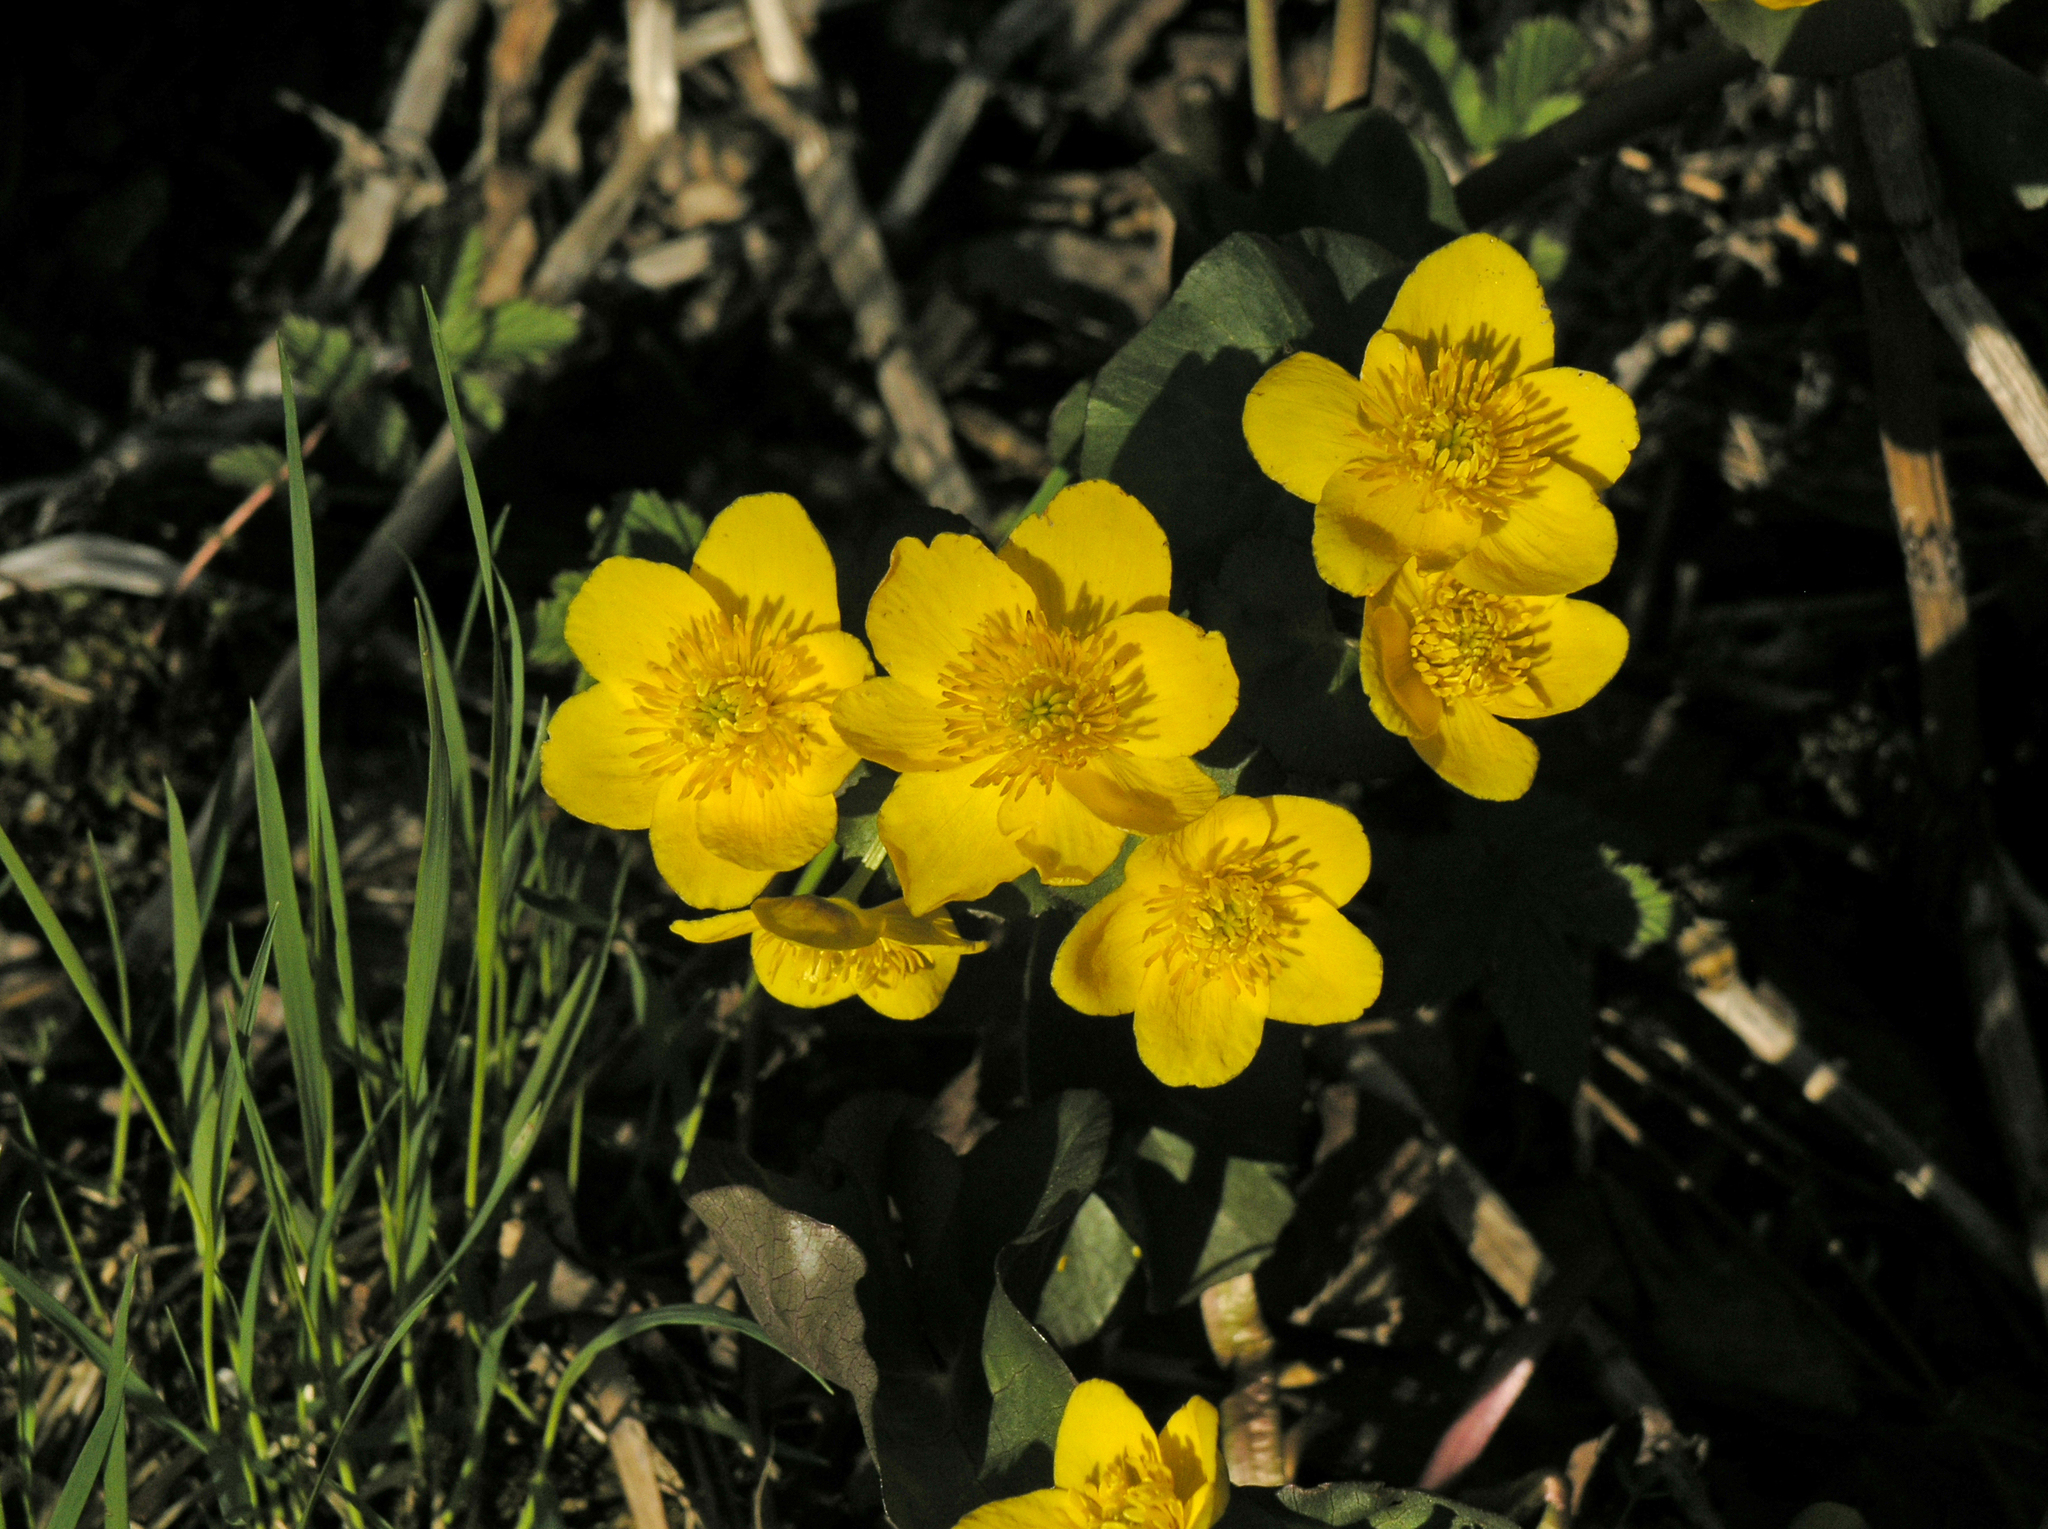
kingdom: Plantae
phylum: Tracheophyta
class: Magnoliopsida
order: Ranunculales
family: Ranunculaceae
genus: Caltha
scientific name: Caltha palustris
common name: Marsh marigold
